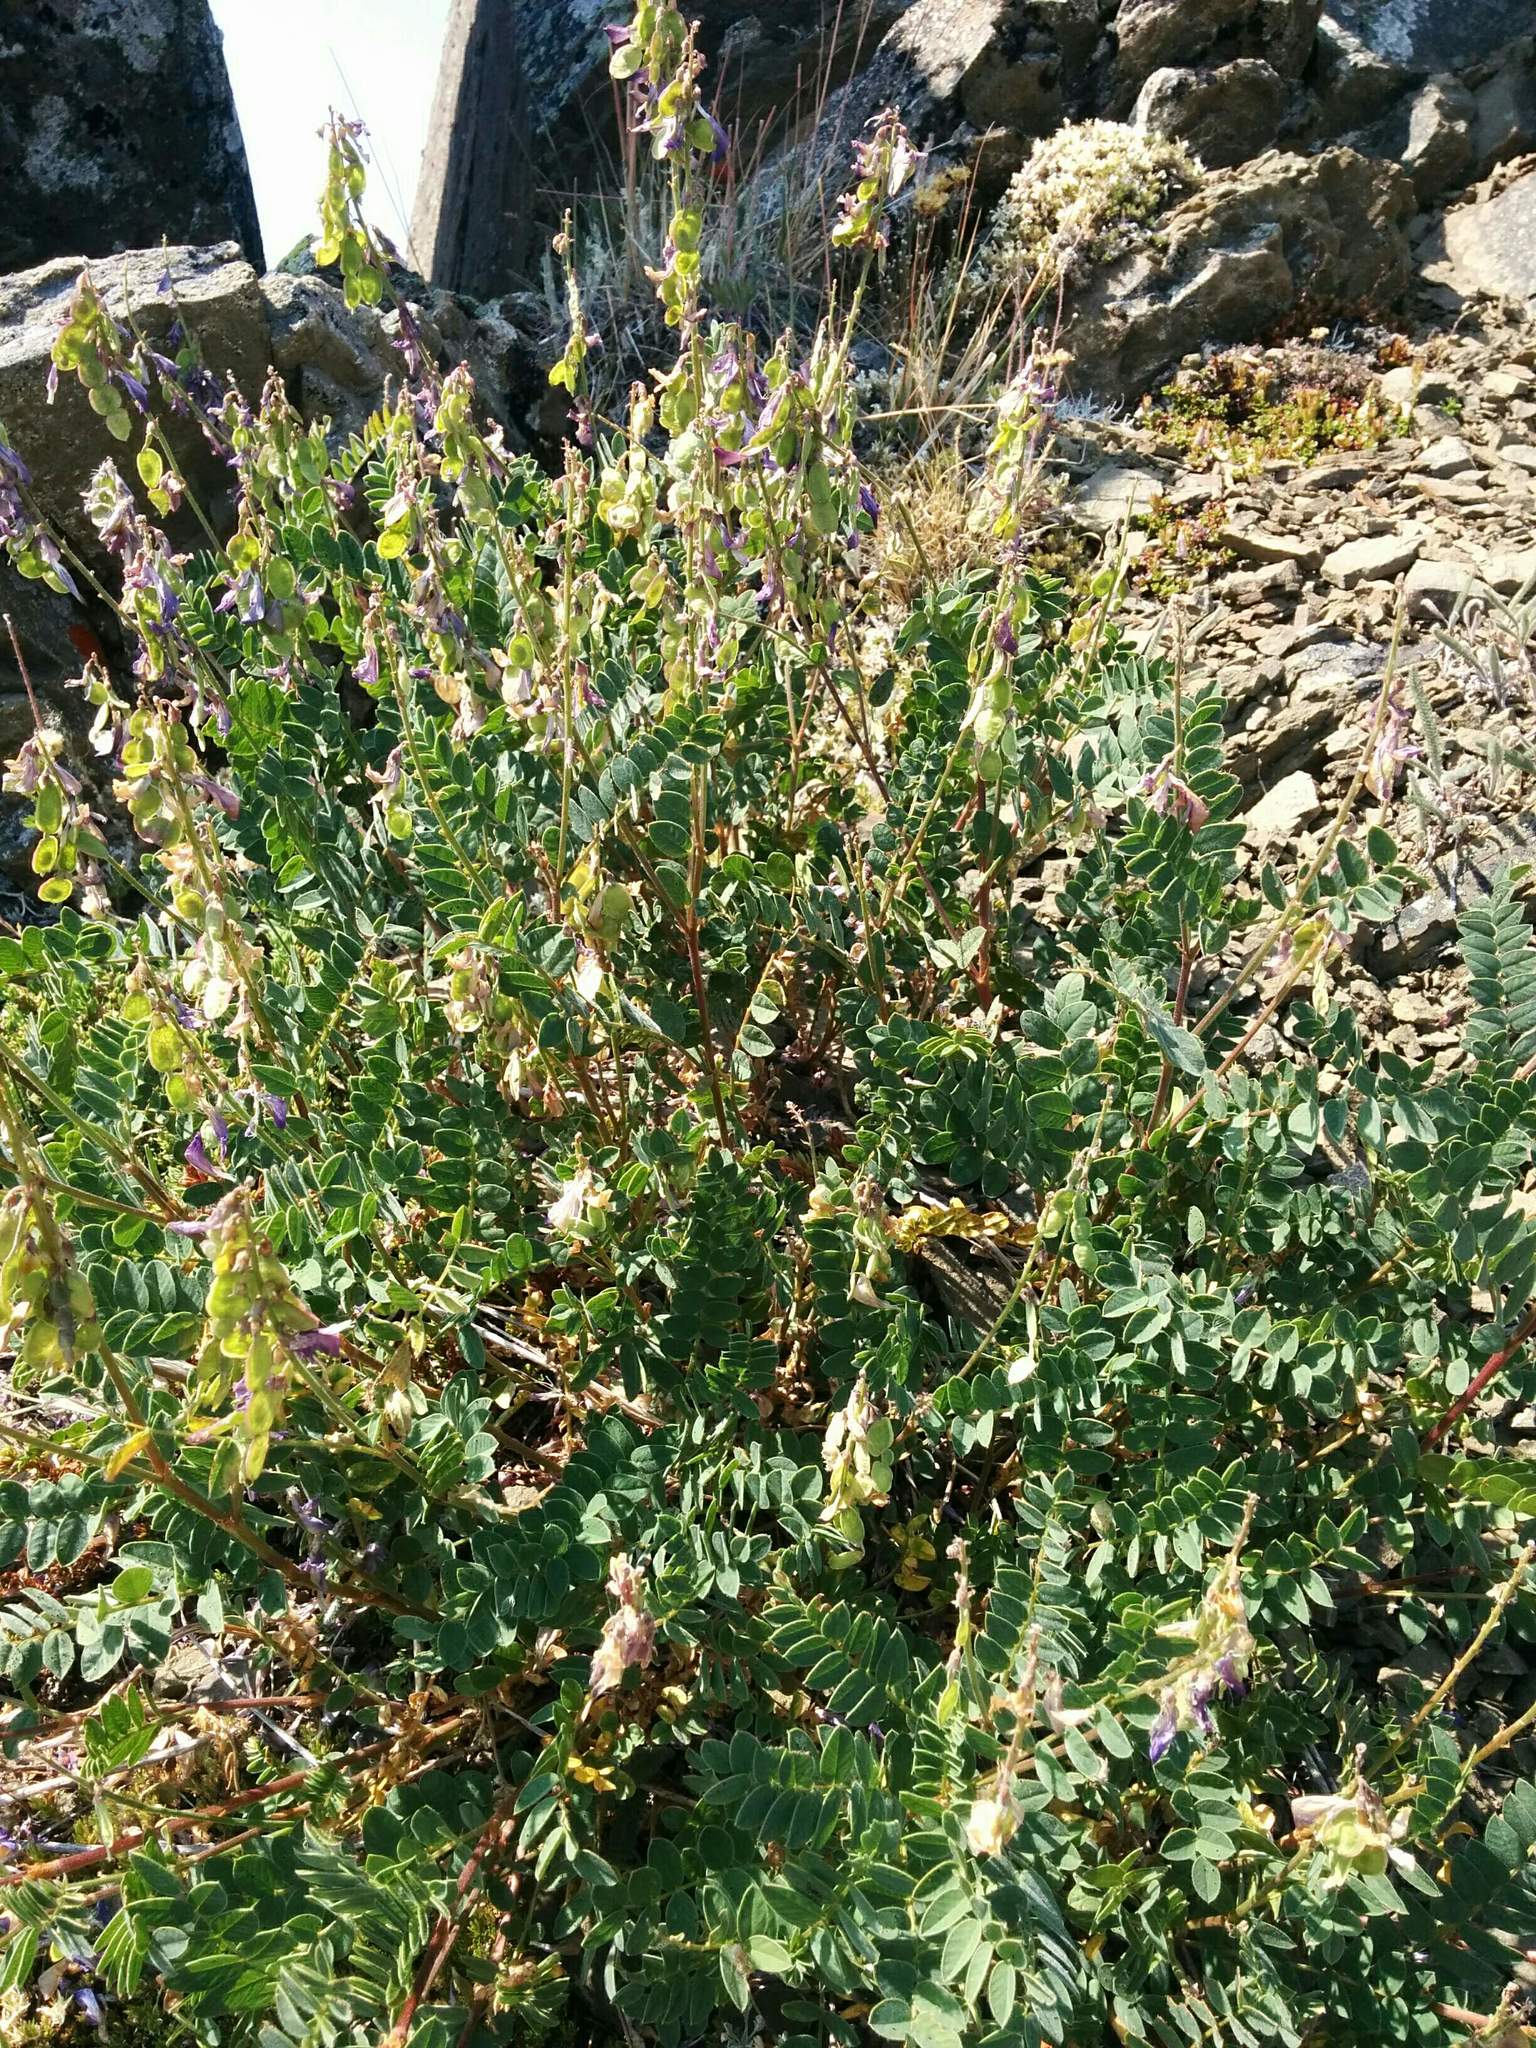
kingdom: Plantae
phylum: Tracheophyta
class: Magnoliopsida
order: Fabales
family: Fabaceae
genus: Hedysarum
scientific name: Hedysarum occidentale
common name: Western hedysarum
